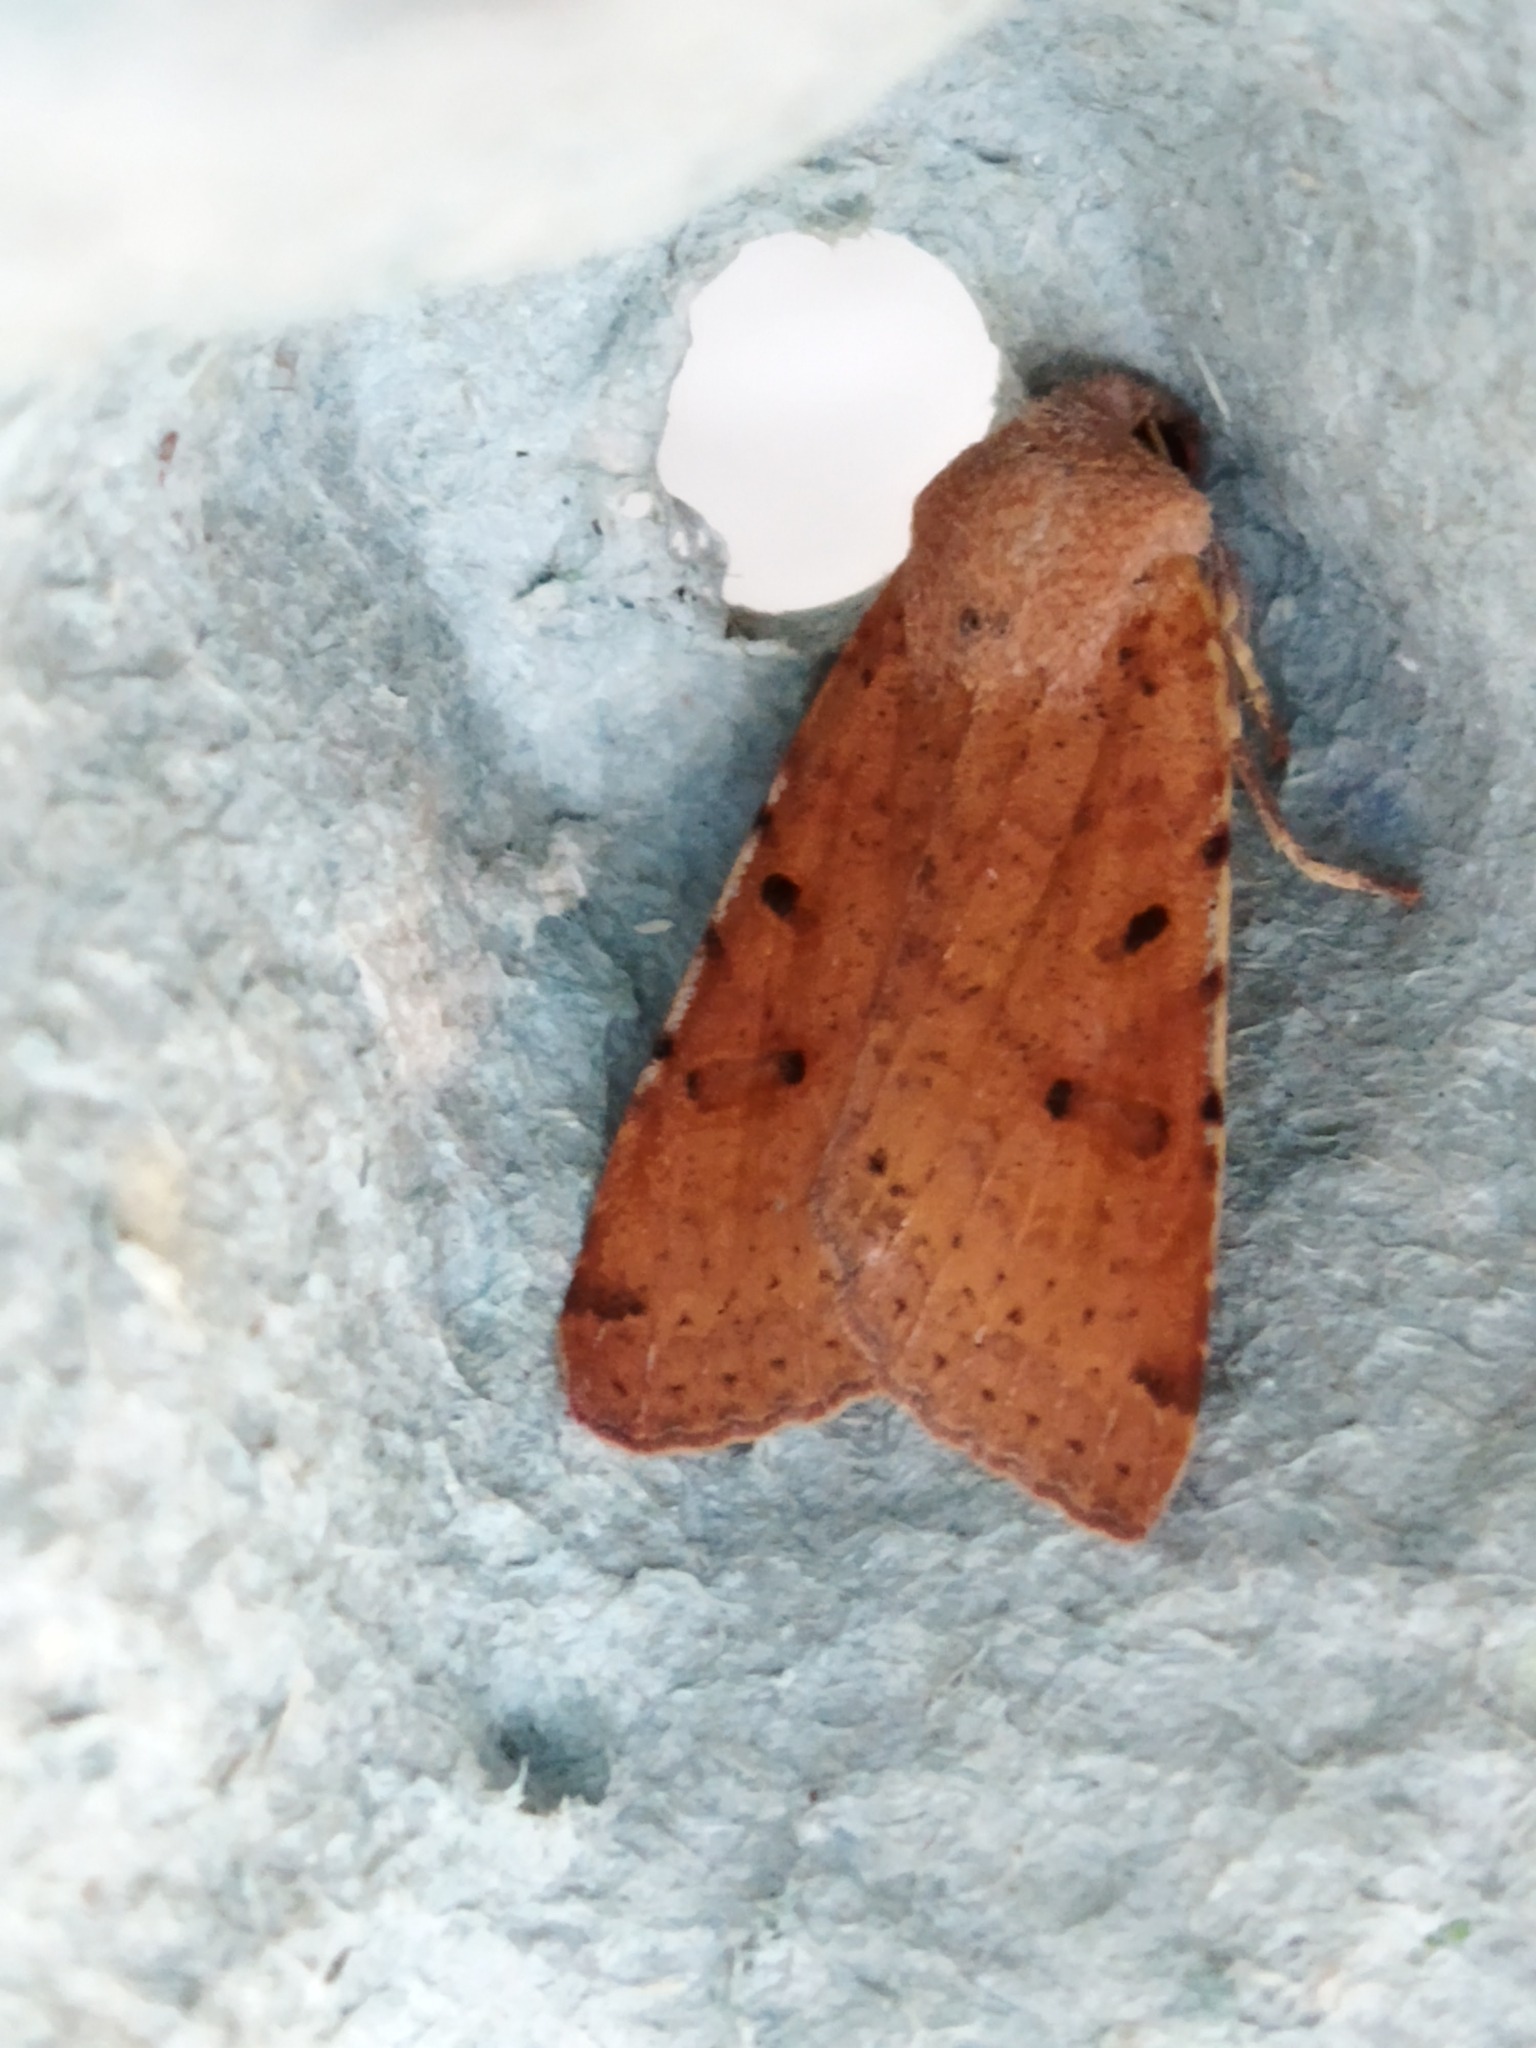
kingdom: Animalia
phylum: Arthropoda
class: Insecta
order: Lepidoptera
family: Noctuidae
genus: Agrochola
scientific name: Agrochola lychnidis
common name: Beaded chestnut
